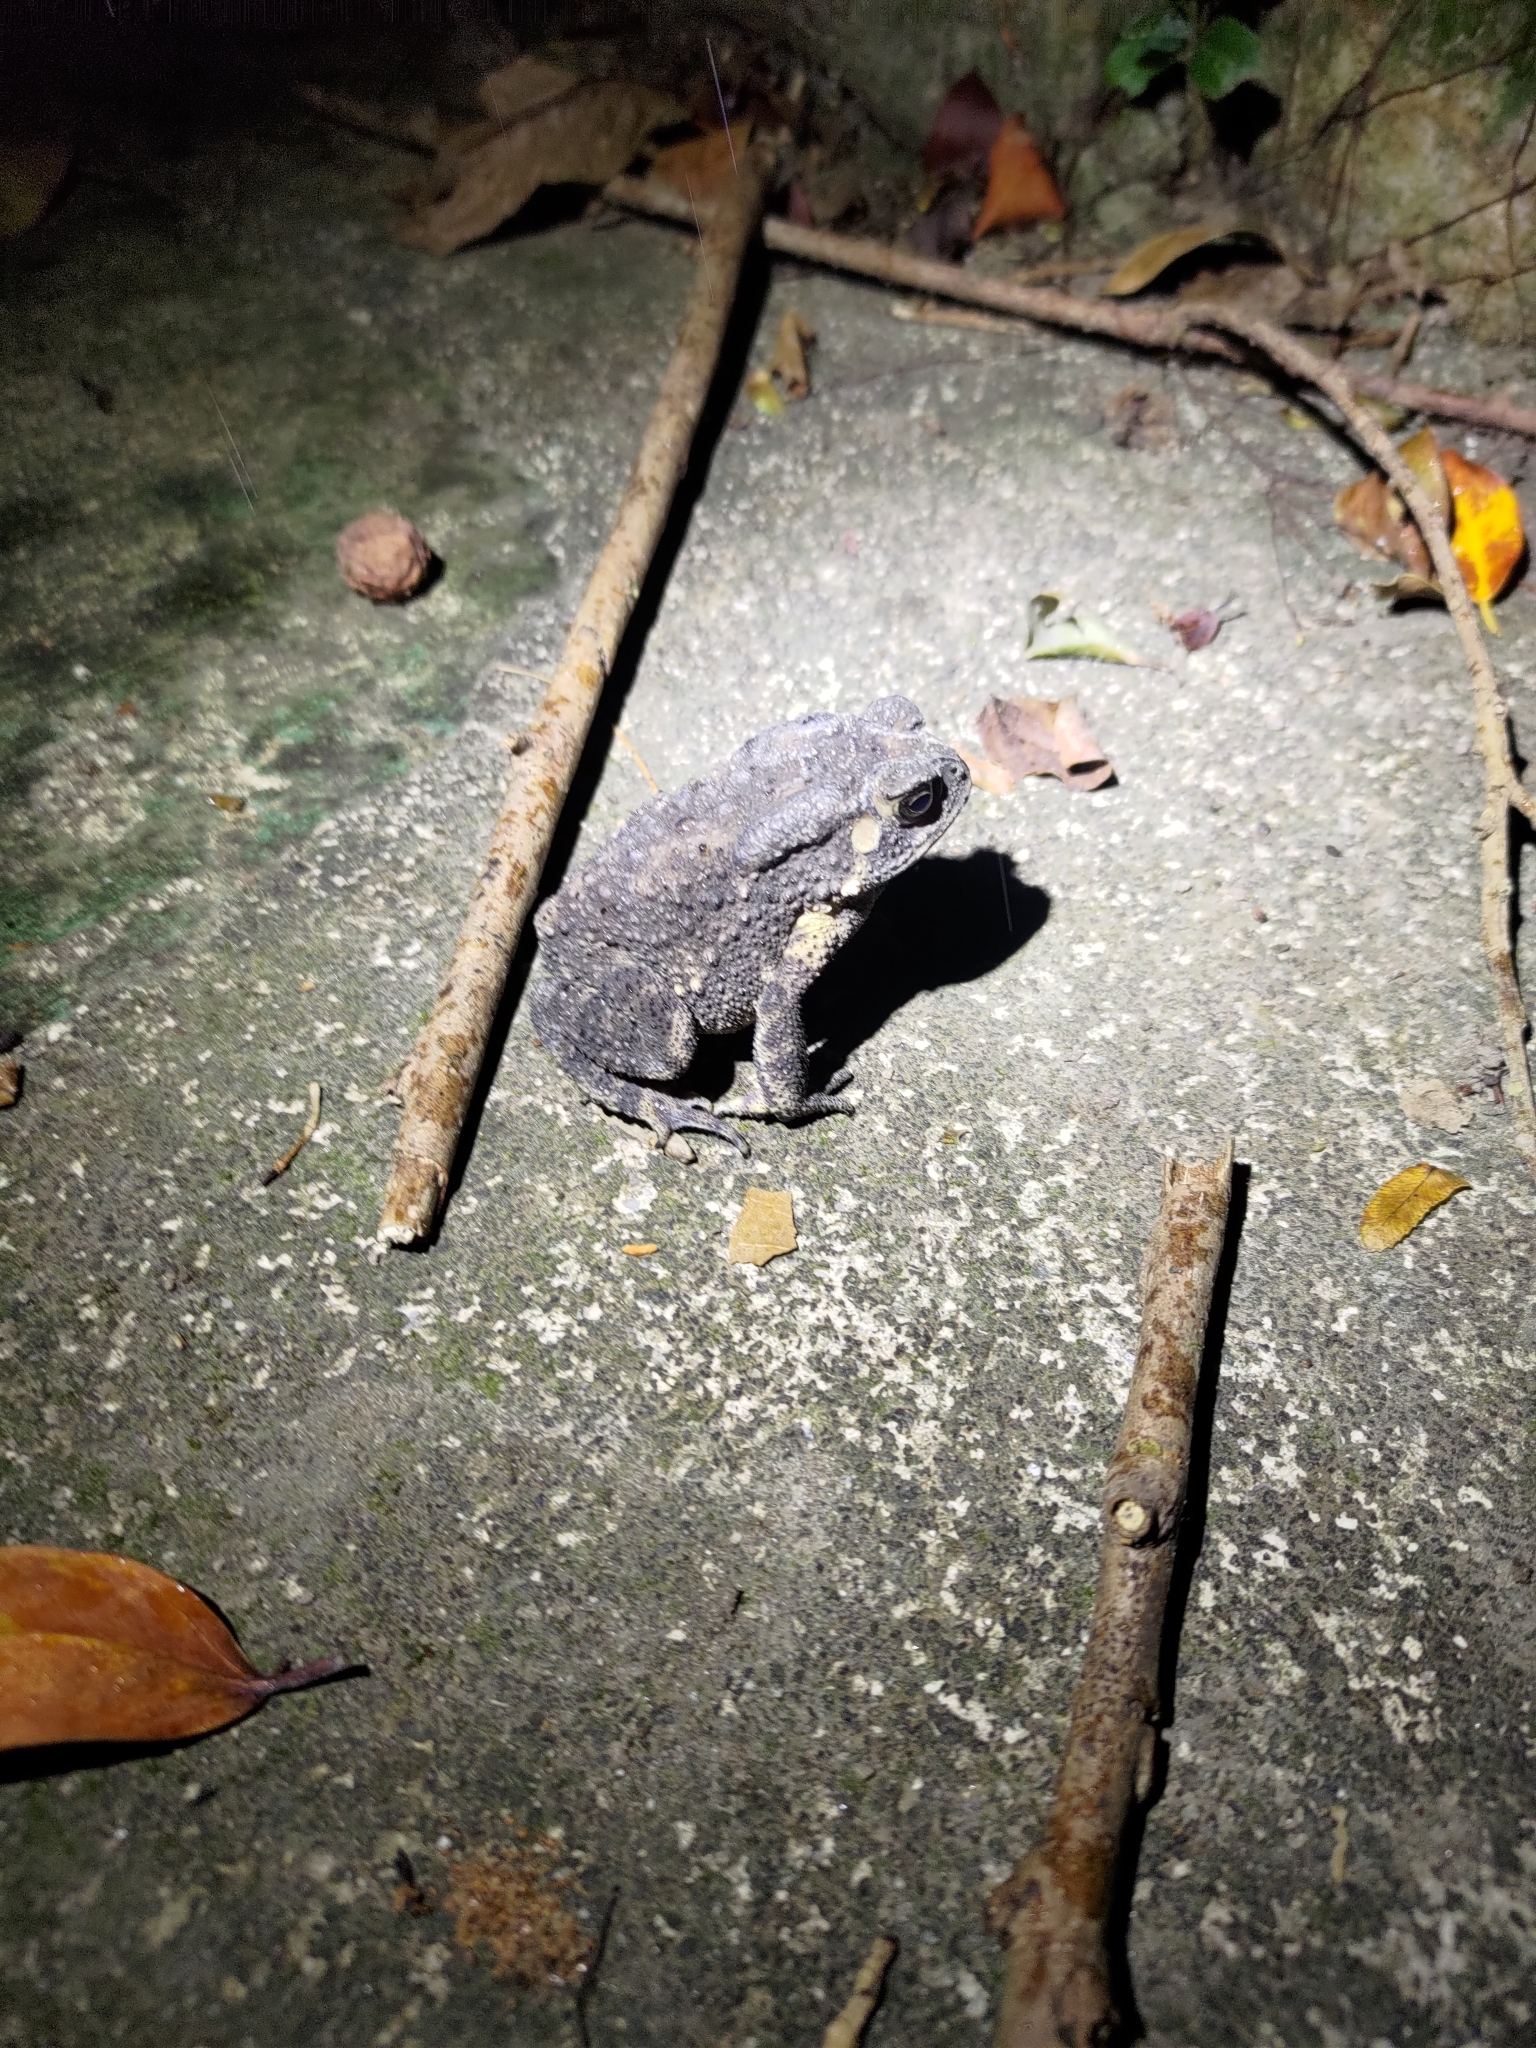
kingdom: Animalia
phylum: Chordata
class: Amphibia
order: Anura
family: Bufonidae
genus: Duttaphrynus
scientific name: Duttaphrynus melanostictus
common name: Common sunda toad
